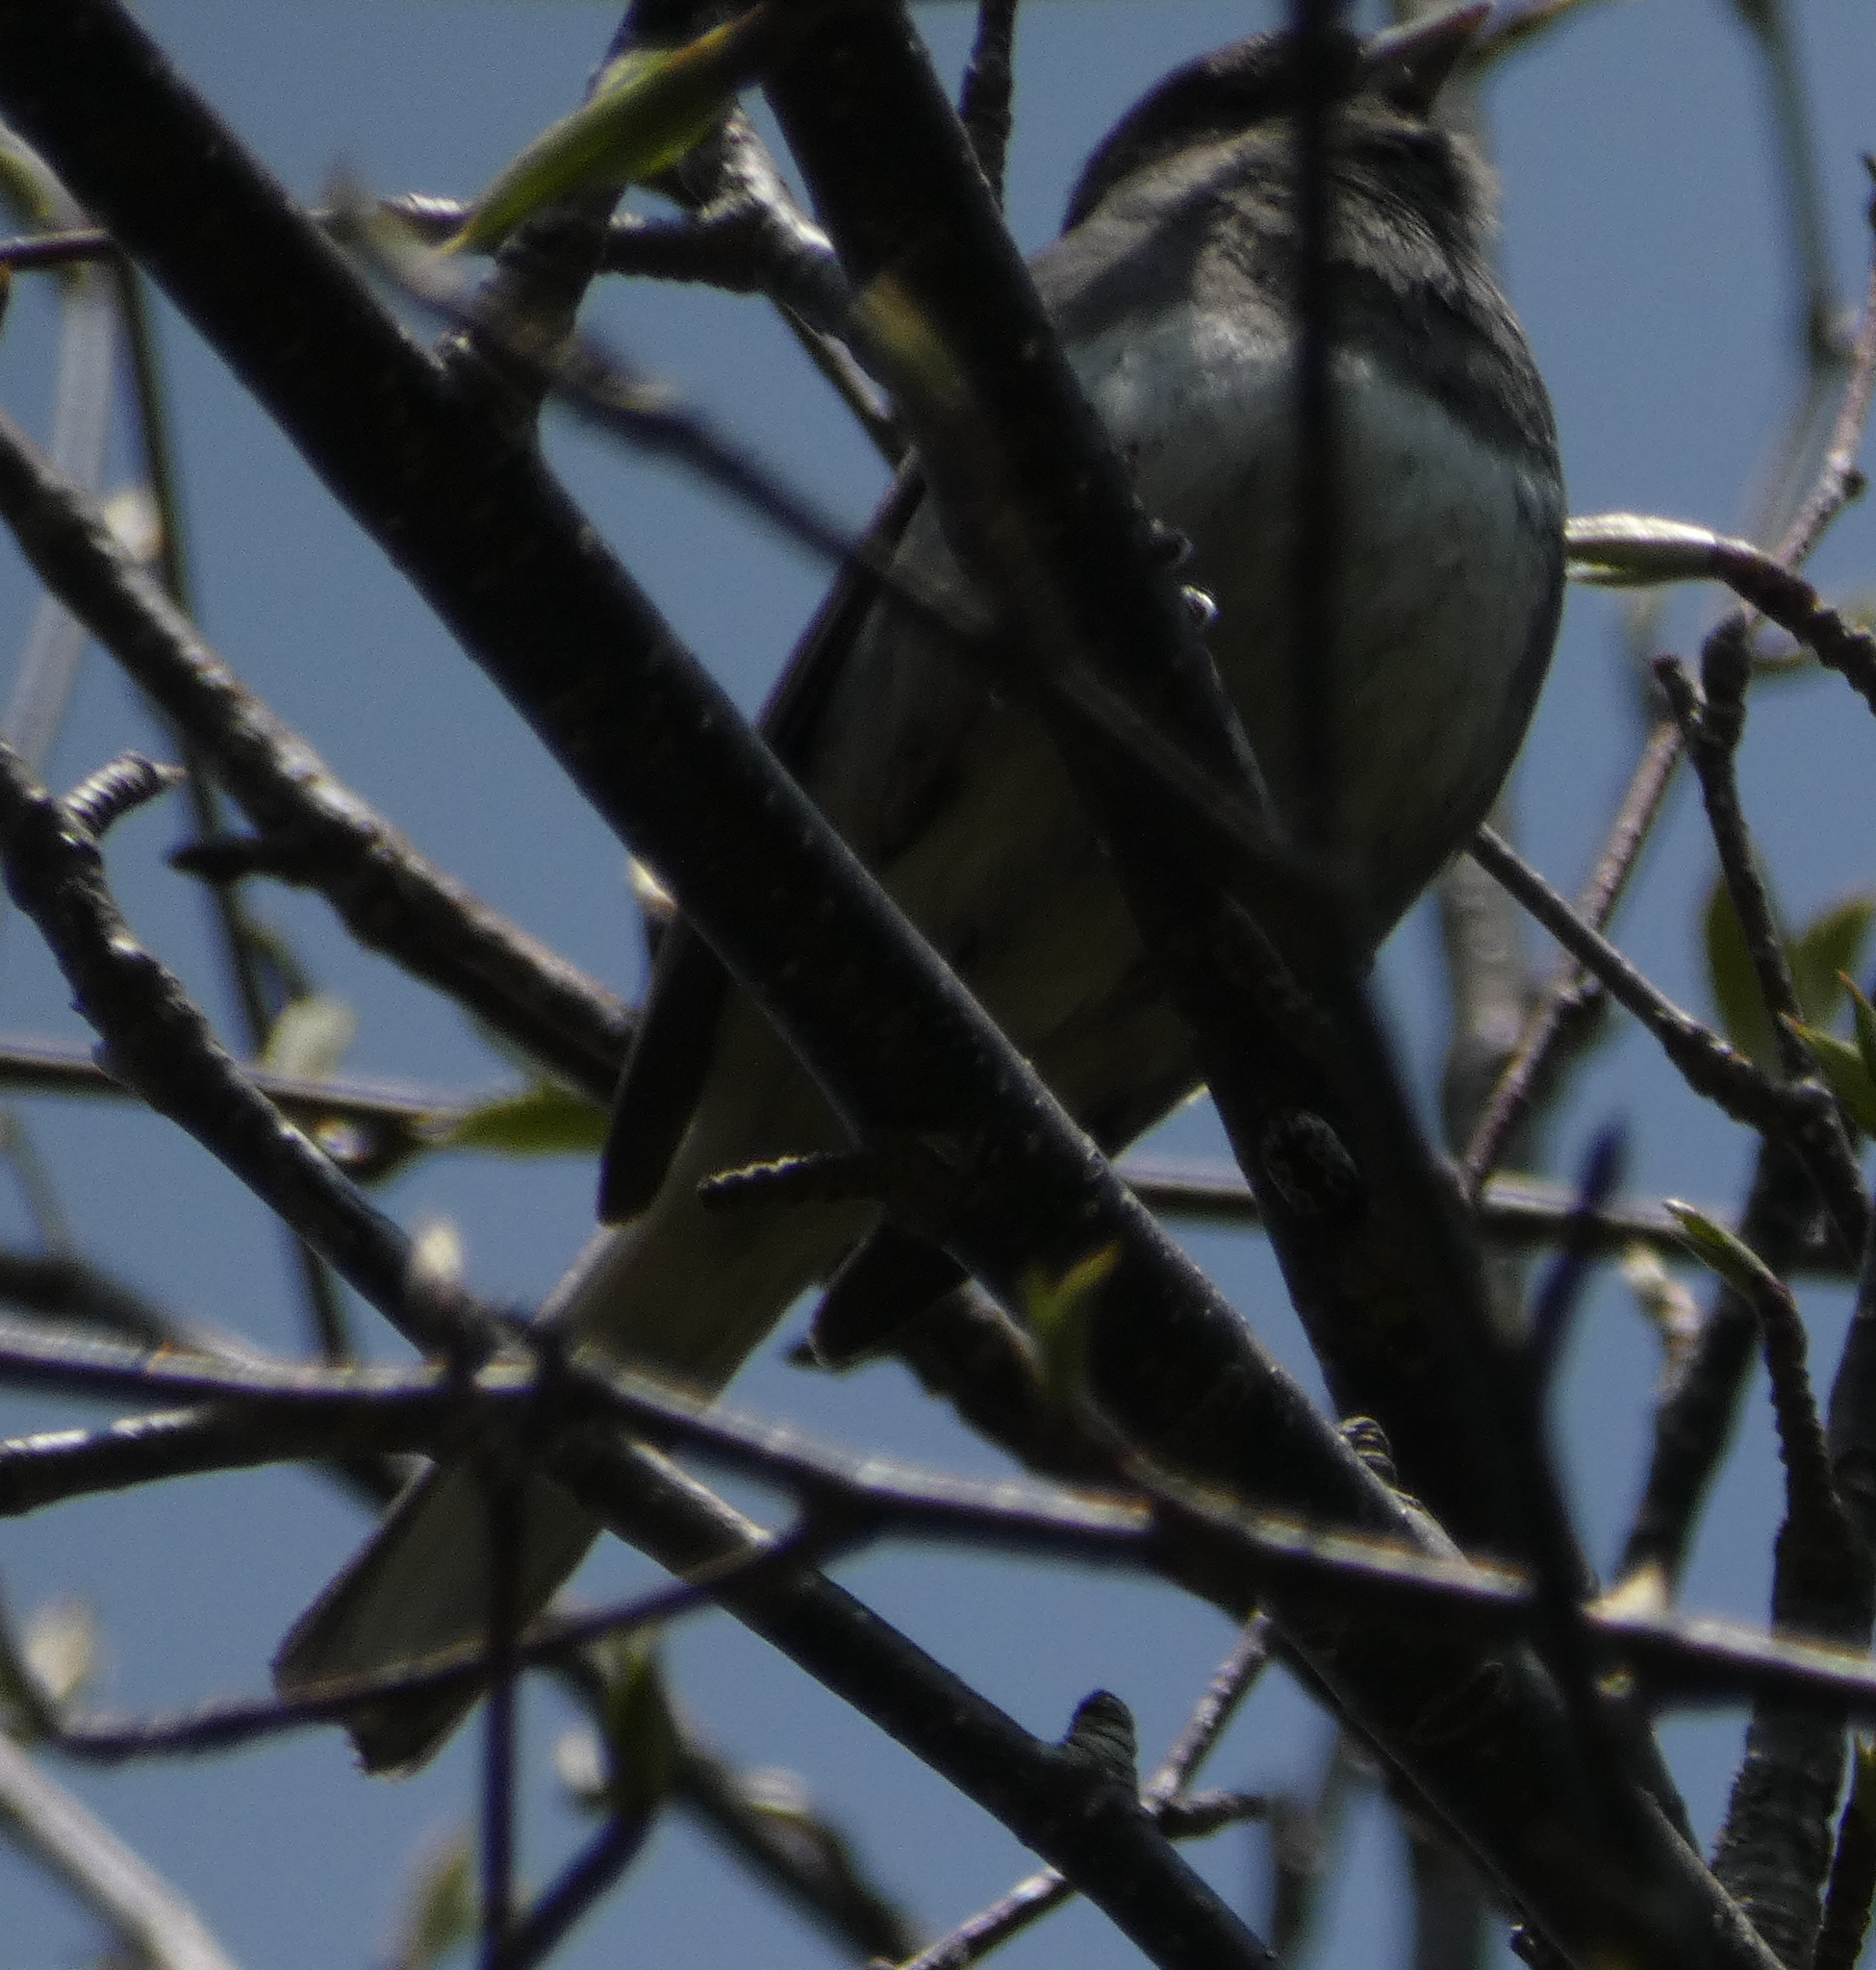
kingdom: Animalia
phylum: Chordata
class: Aves
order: Passeriformes
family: Passerellidae
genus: Junco
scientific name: Junco hyemalis
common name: Dark-eyed junco
